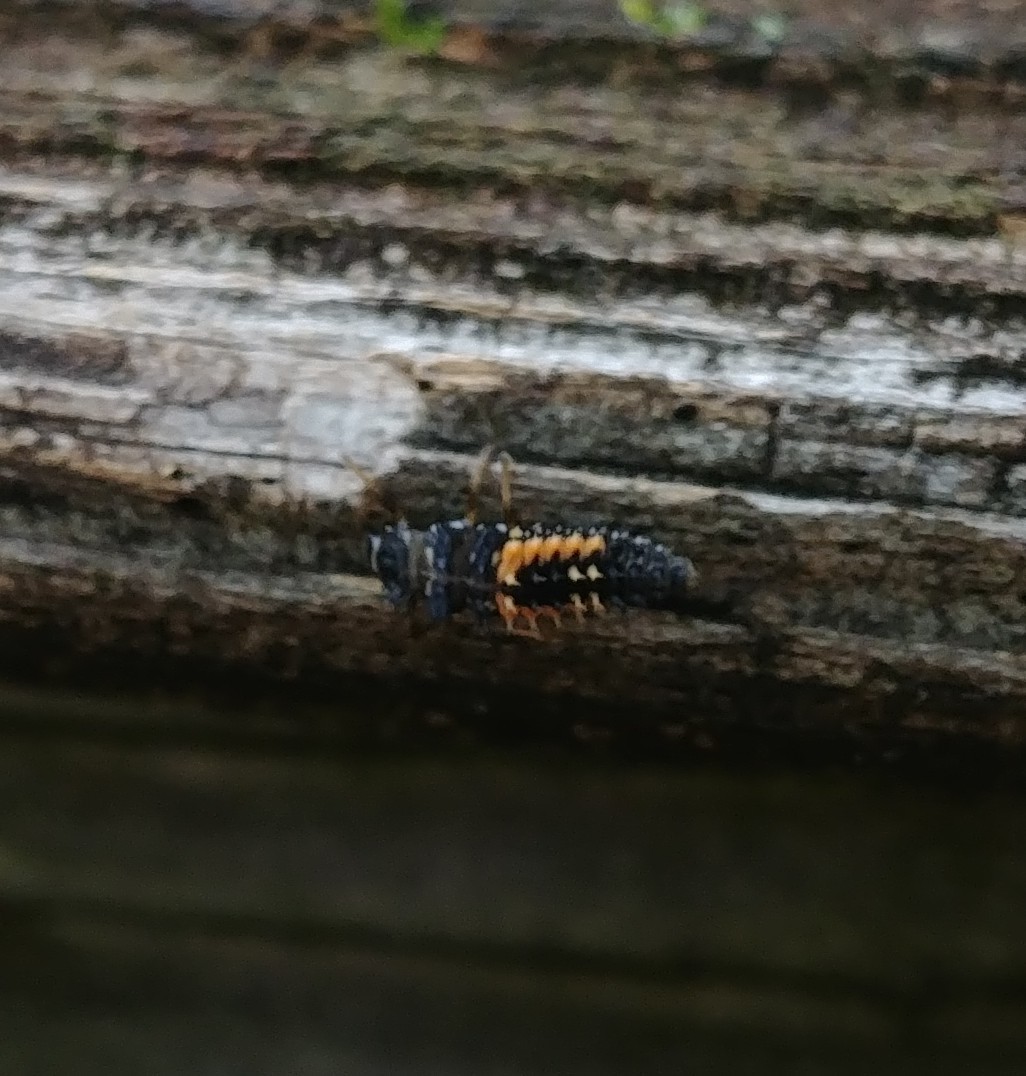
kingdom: Animalia
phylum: Arthropoda
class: Insecta
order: Coleoptera
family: Coccinellidae
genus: Harmonia
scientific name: Harmonia axyridis
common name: Harlequin ladybird
